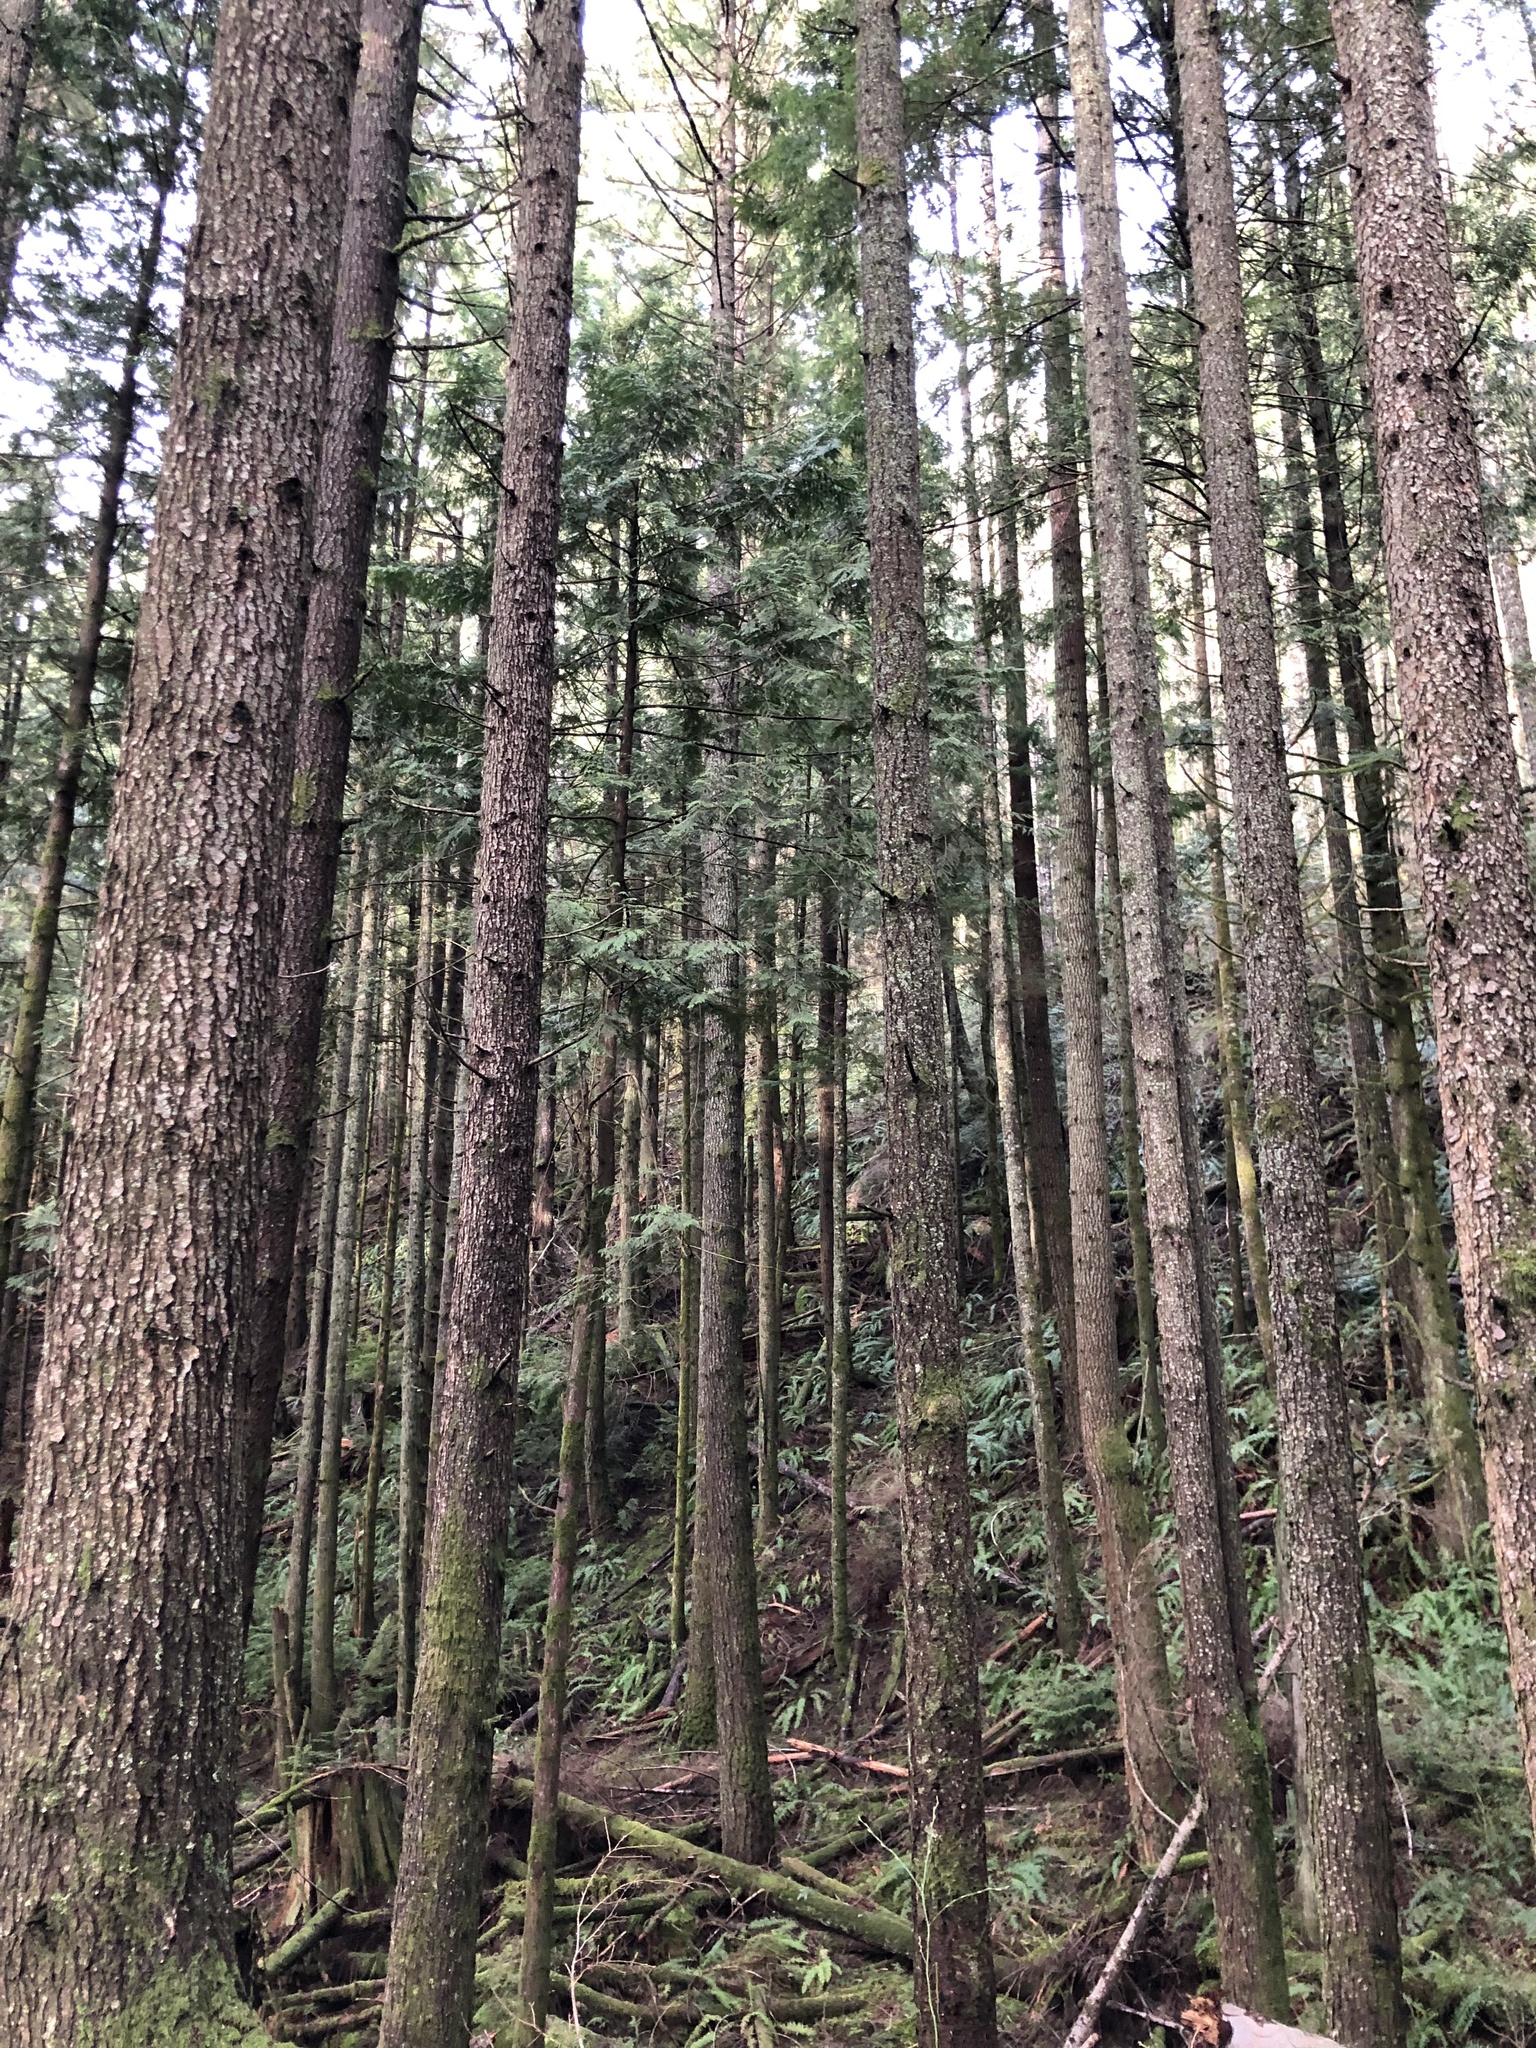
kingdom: Plantae
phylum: Tracheophyta
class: Pinopsida
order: Pinales
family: Cupressaceae
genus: Thuja
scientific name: Thuja plicata
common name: Western red-cedar
